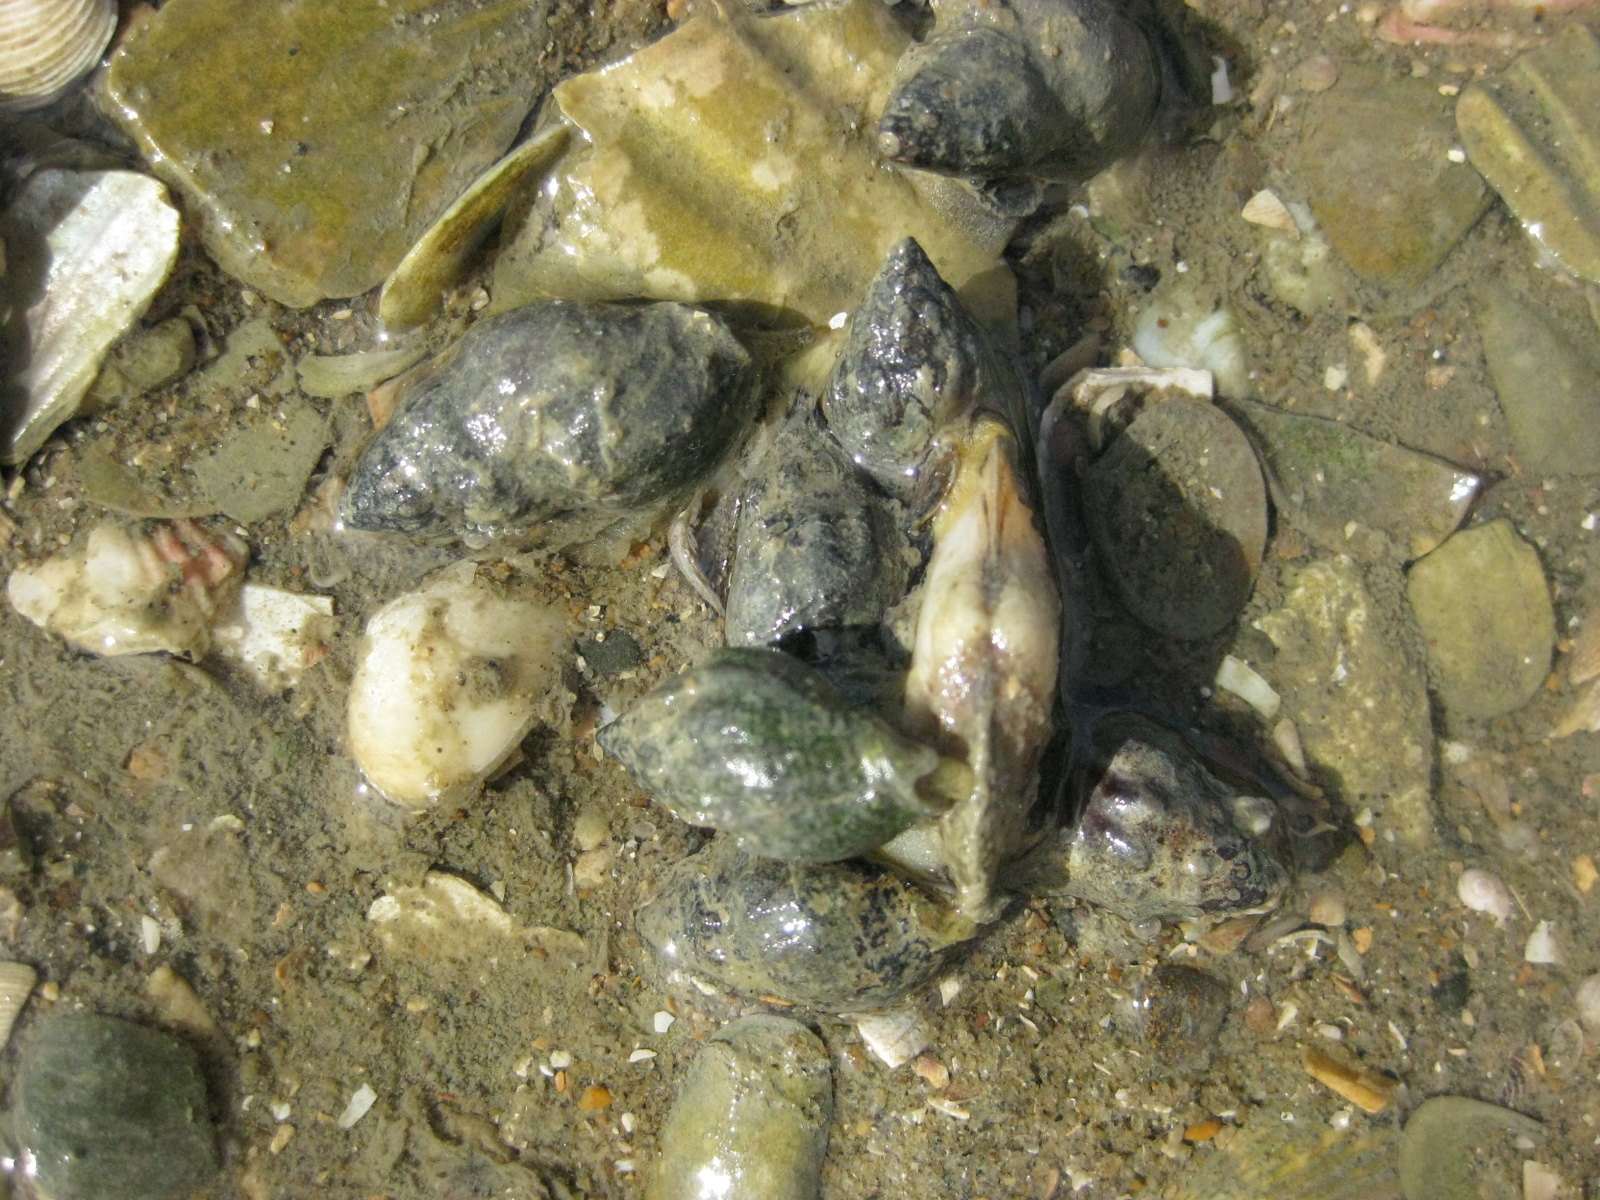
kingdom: Animalia
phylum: Mollusca
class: Bivalvia
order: Venerida
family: Mesodesmatidae
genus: Paphies
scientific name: Paphies australis
